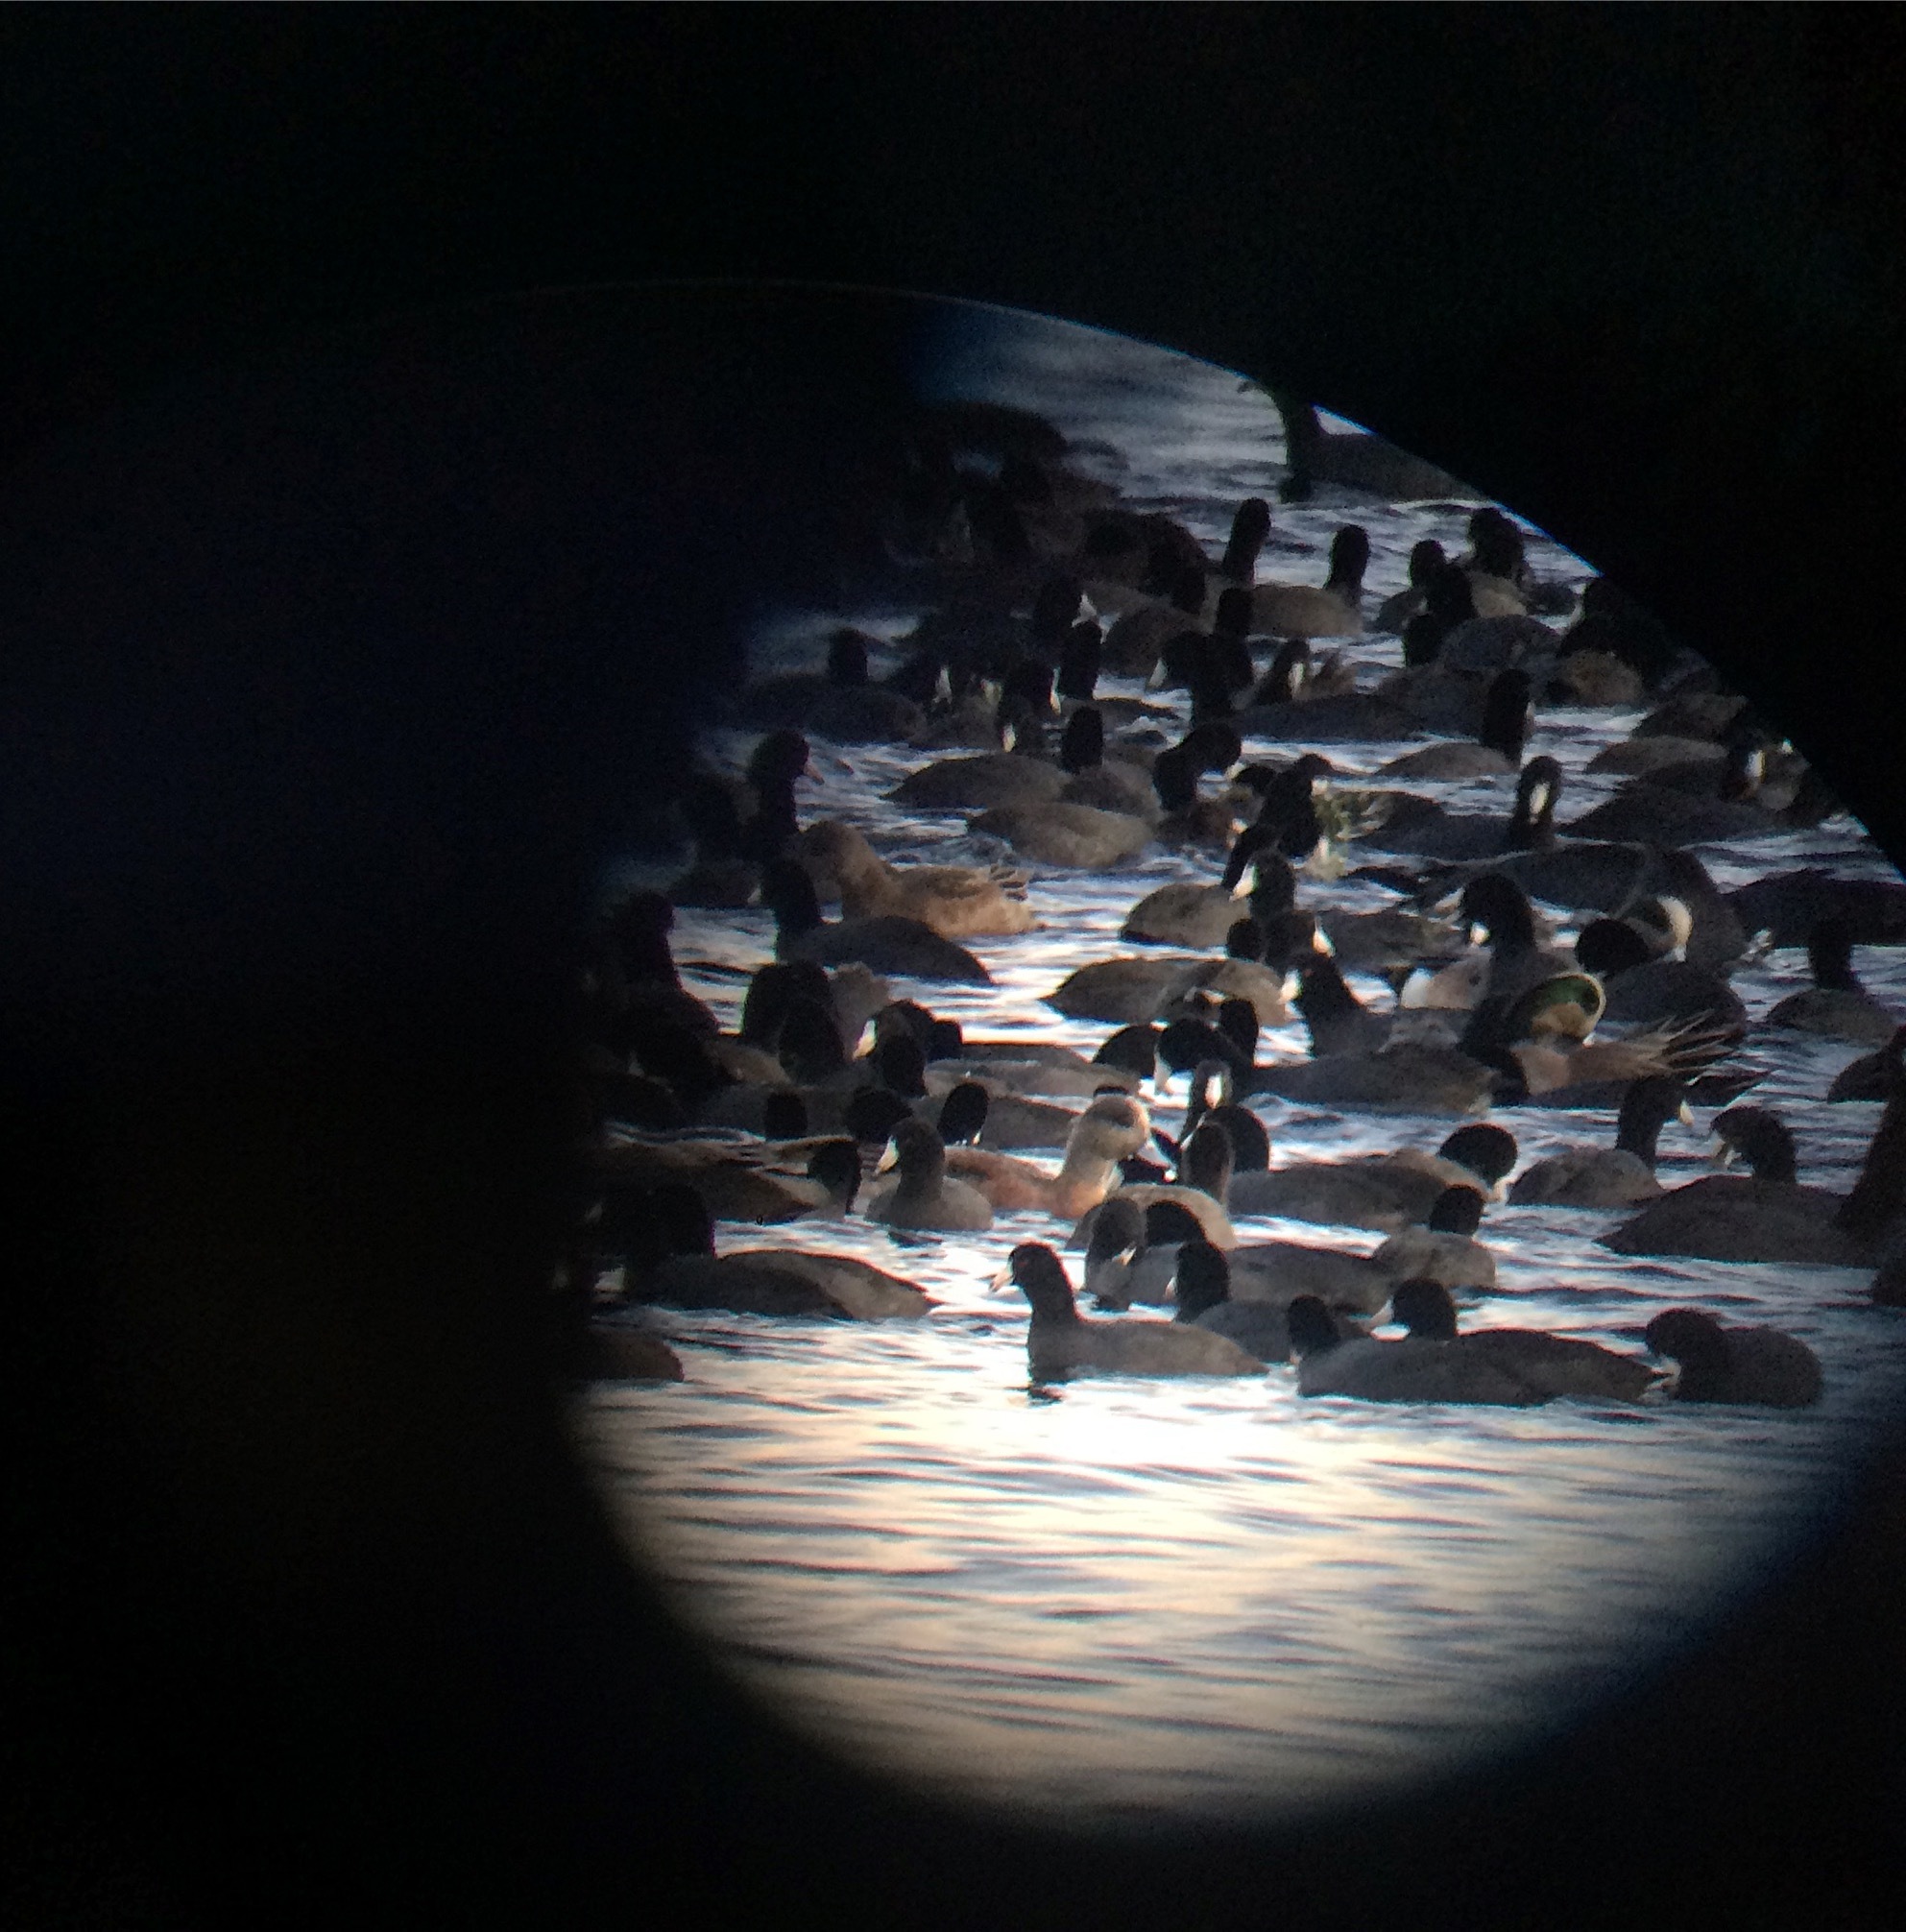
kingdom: Animalia
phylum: Chordata
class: Aves
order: Gruiformes
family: Rallidae
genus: Fulica
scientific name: Fulica americana
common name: American coot
